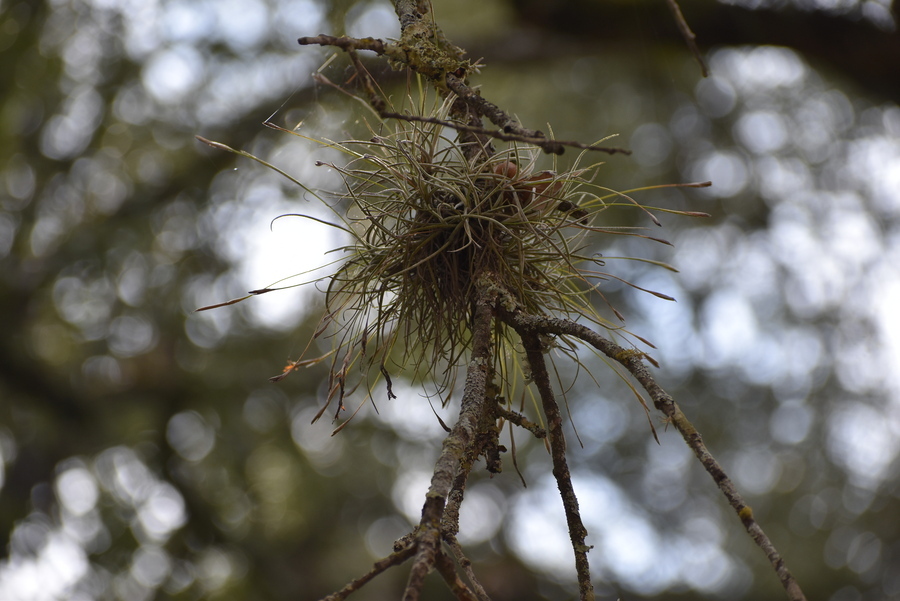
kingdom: Plantae
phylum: Tracheophyta
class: Liliopsida
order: Poales
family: Bromeliaceae
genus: Tillandsia
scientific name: Tillandsia recurvata
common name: Small ballmoss
